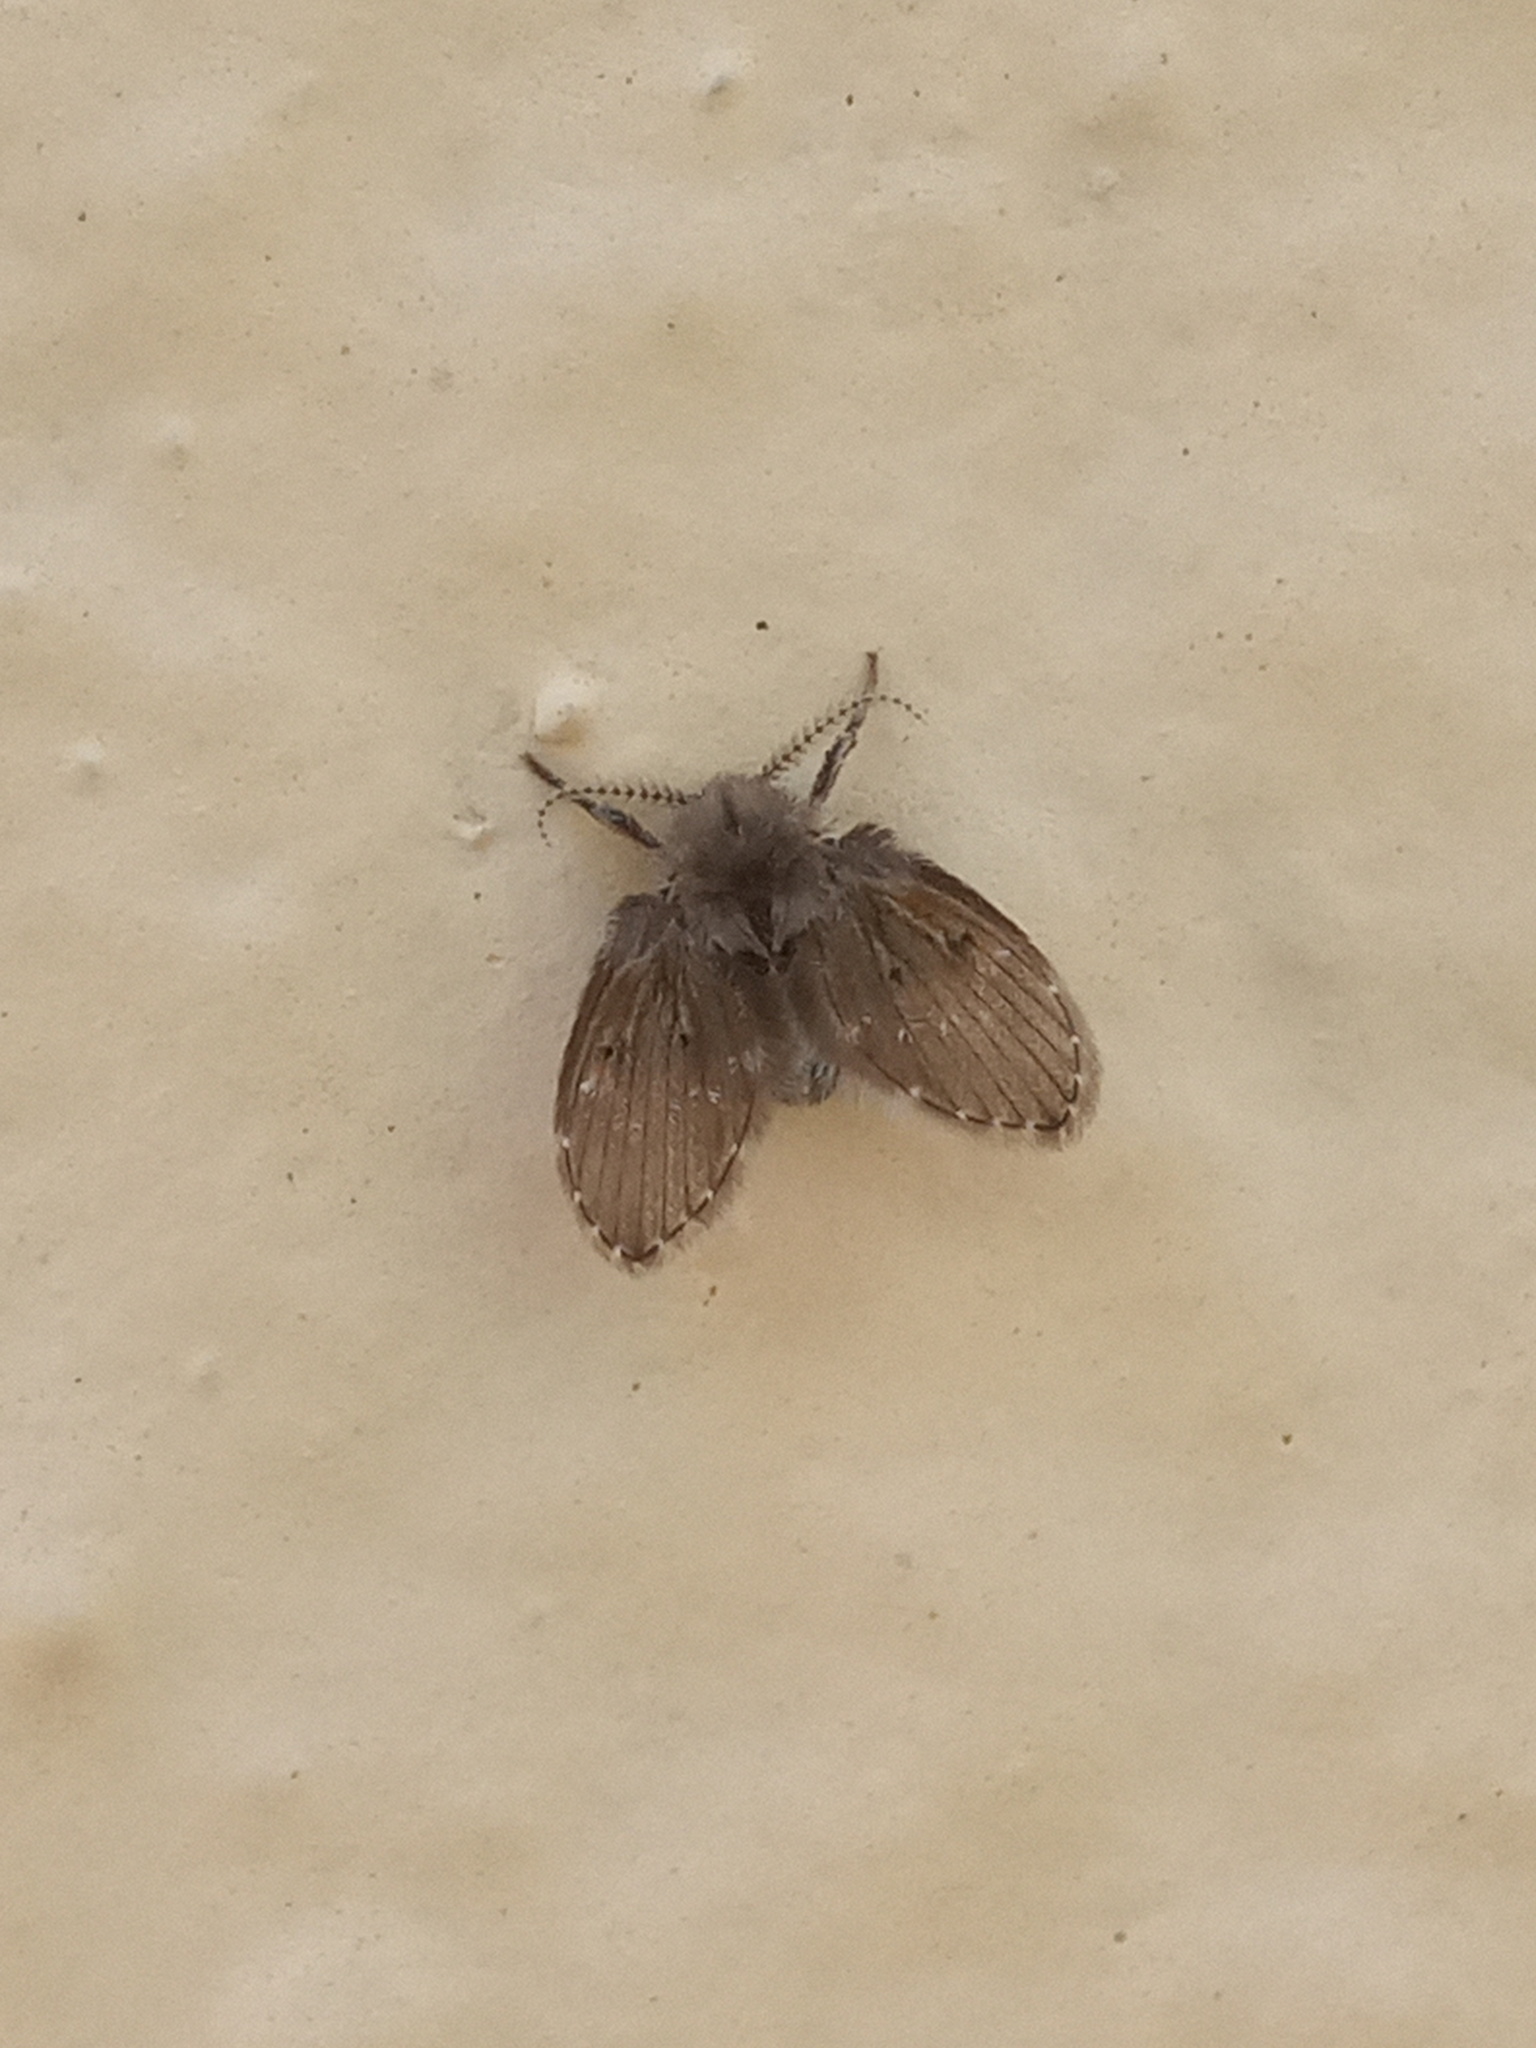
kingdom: Animalia
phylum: Arthropoda
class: Insecta
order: Diptera
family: Psychodidae
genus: Clogmia
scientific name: Clogmia albipunctatus
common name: White-spotted moth fly
